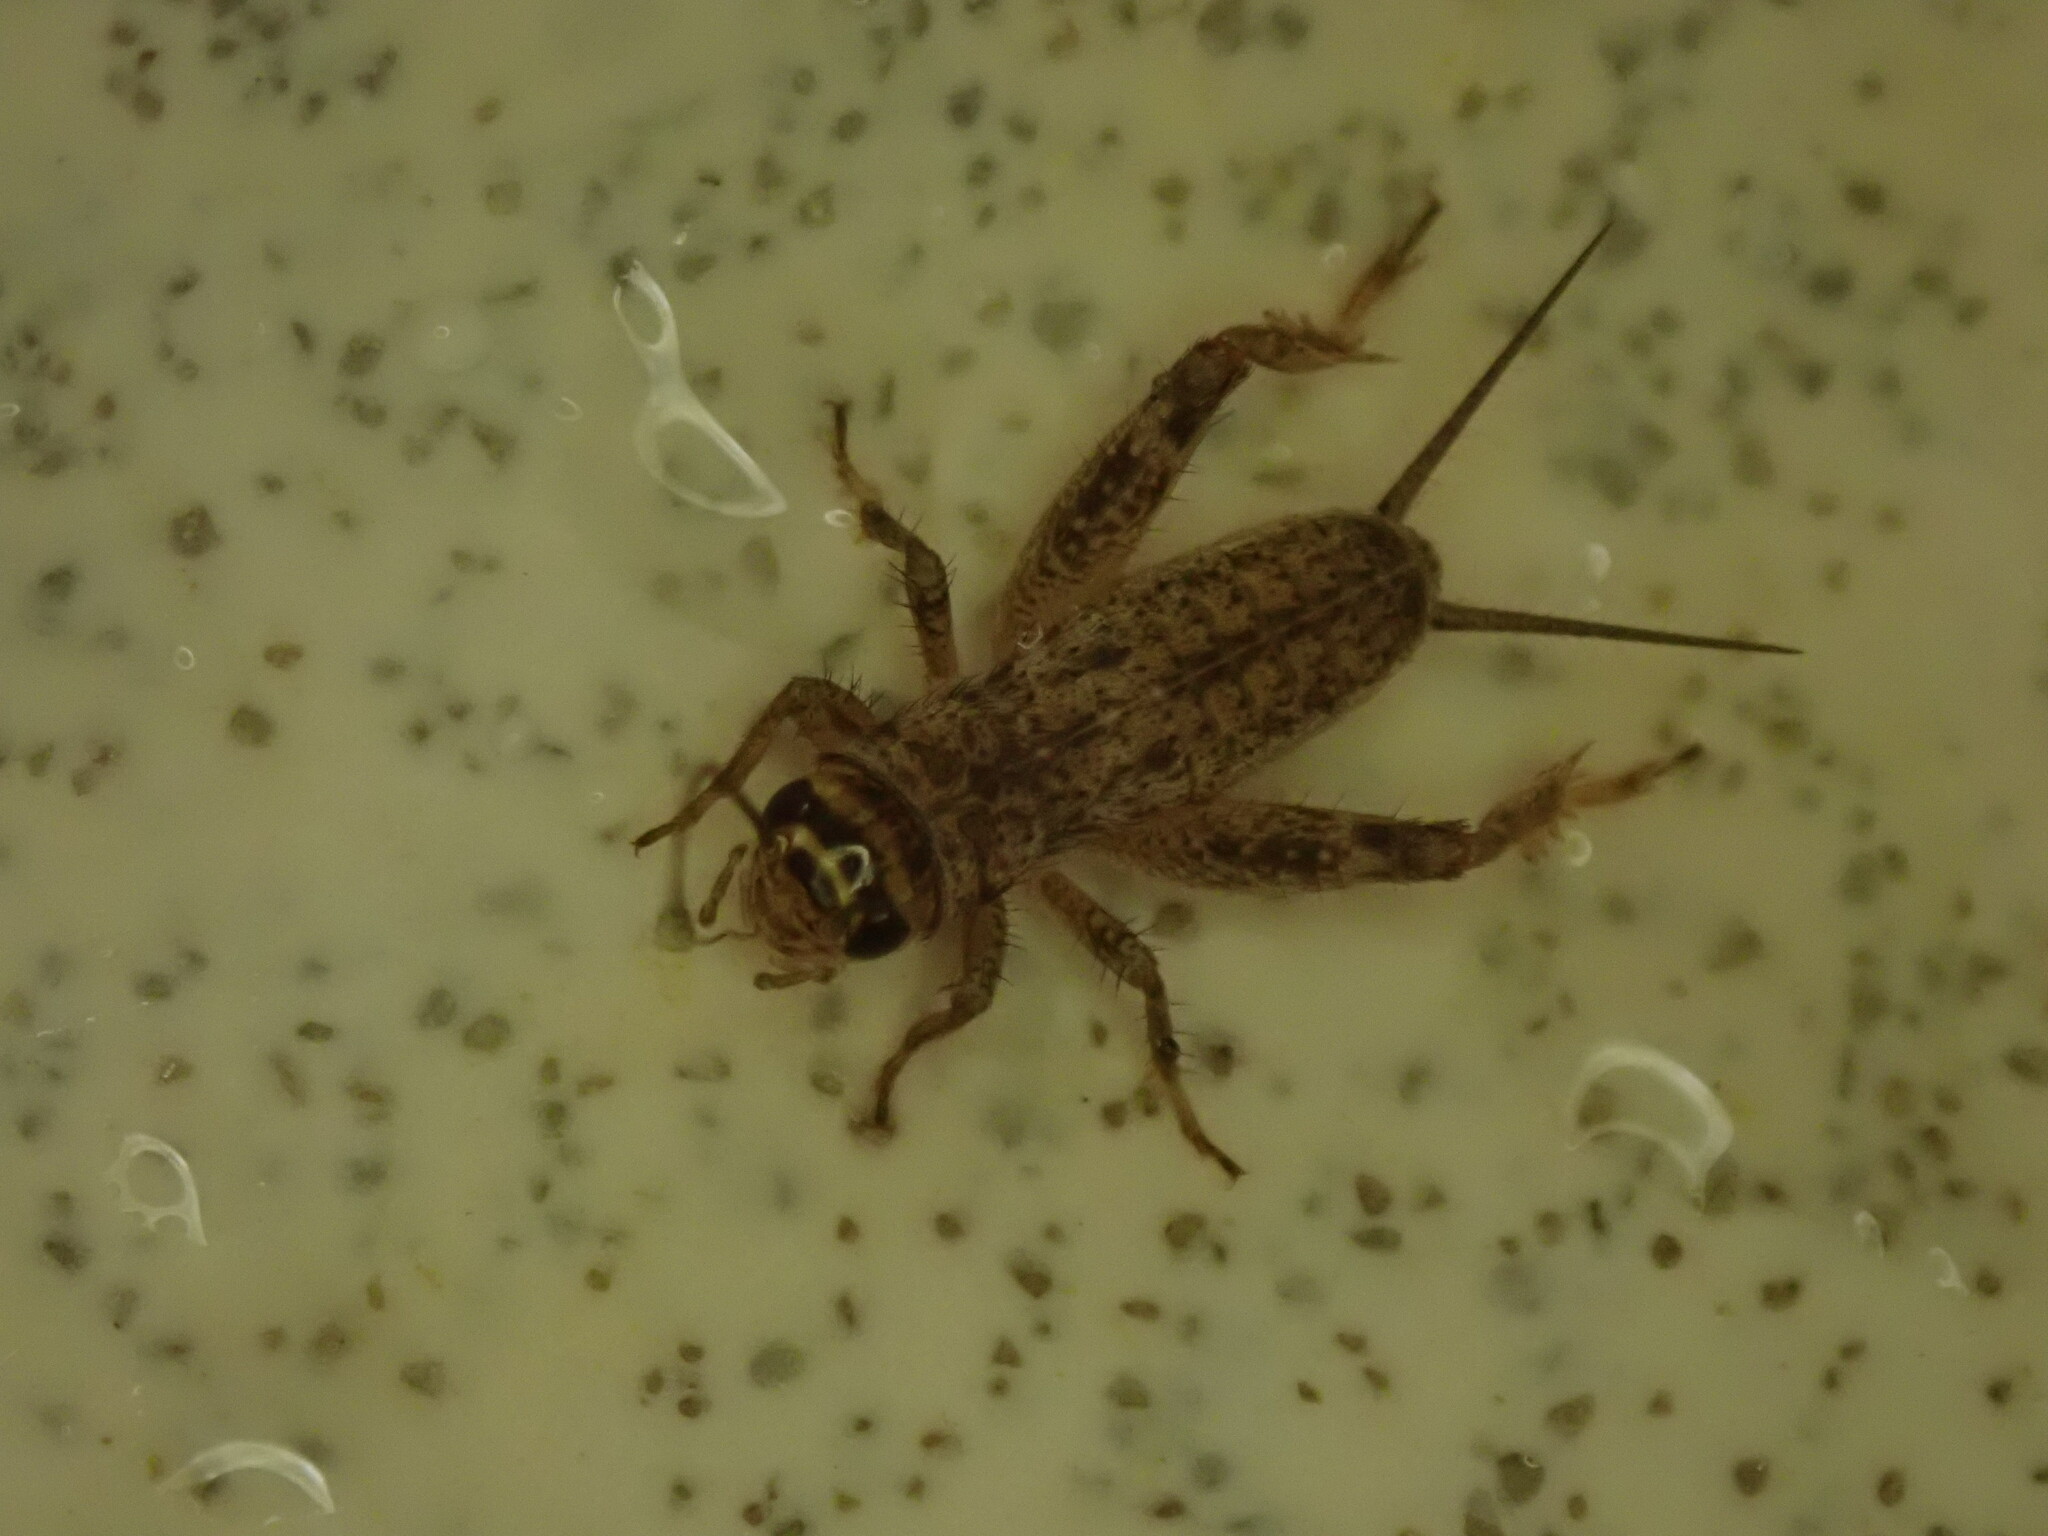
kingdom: Animalia
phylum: Arthropoda
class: Insecta
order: Orthoptera
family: Gryllidae
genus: Eumodicogryllus
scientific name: Eumodicogryllus bordigalensis
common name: Bordeaux cricket
